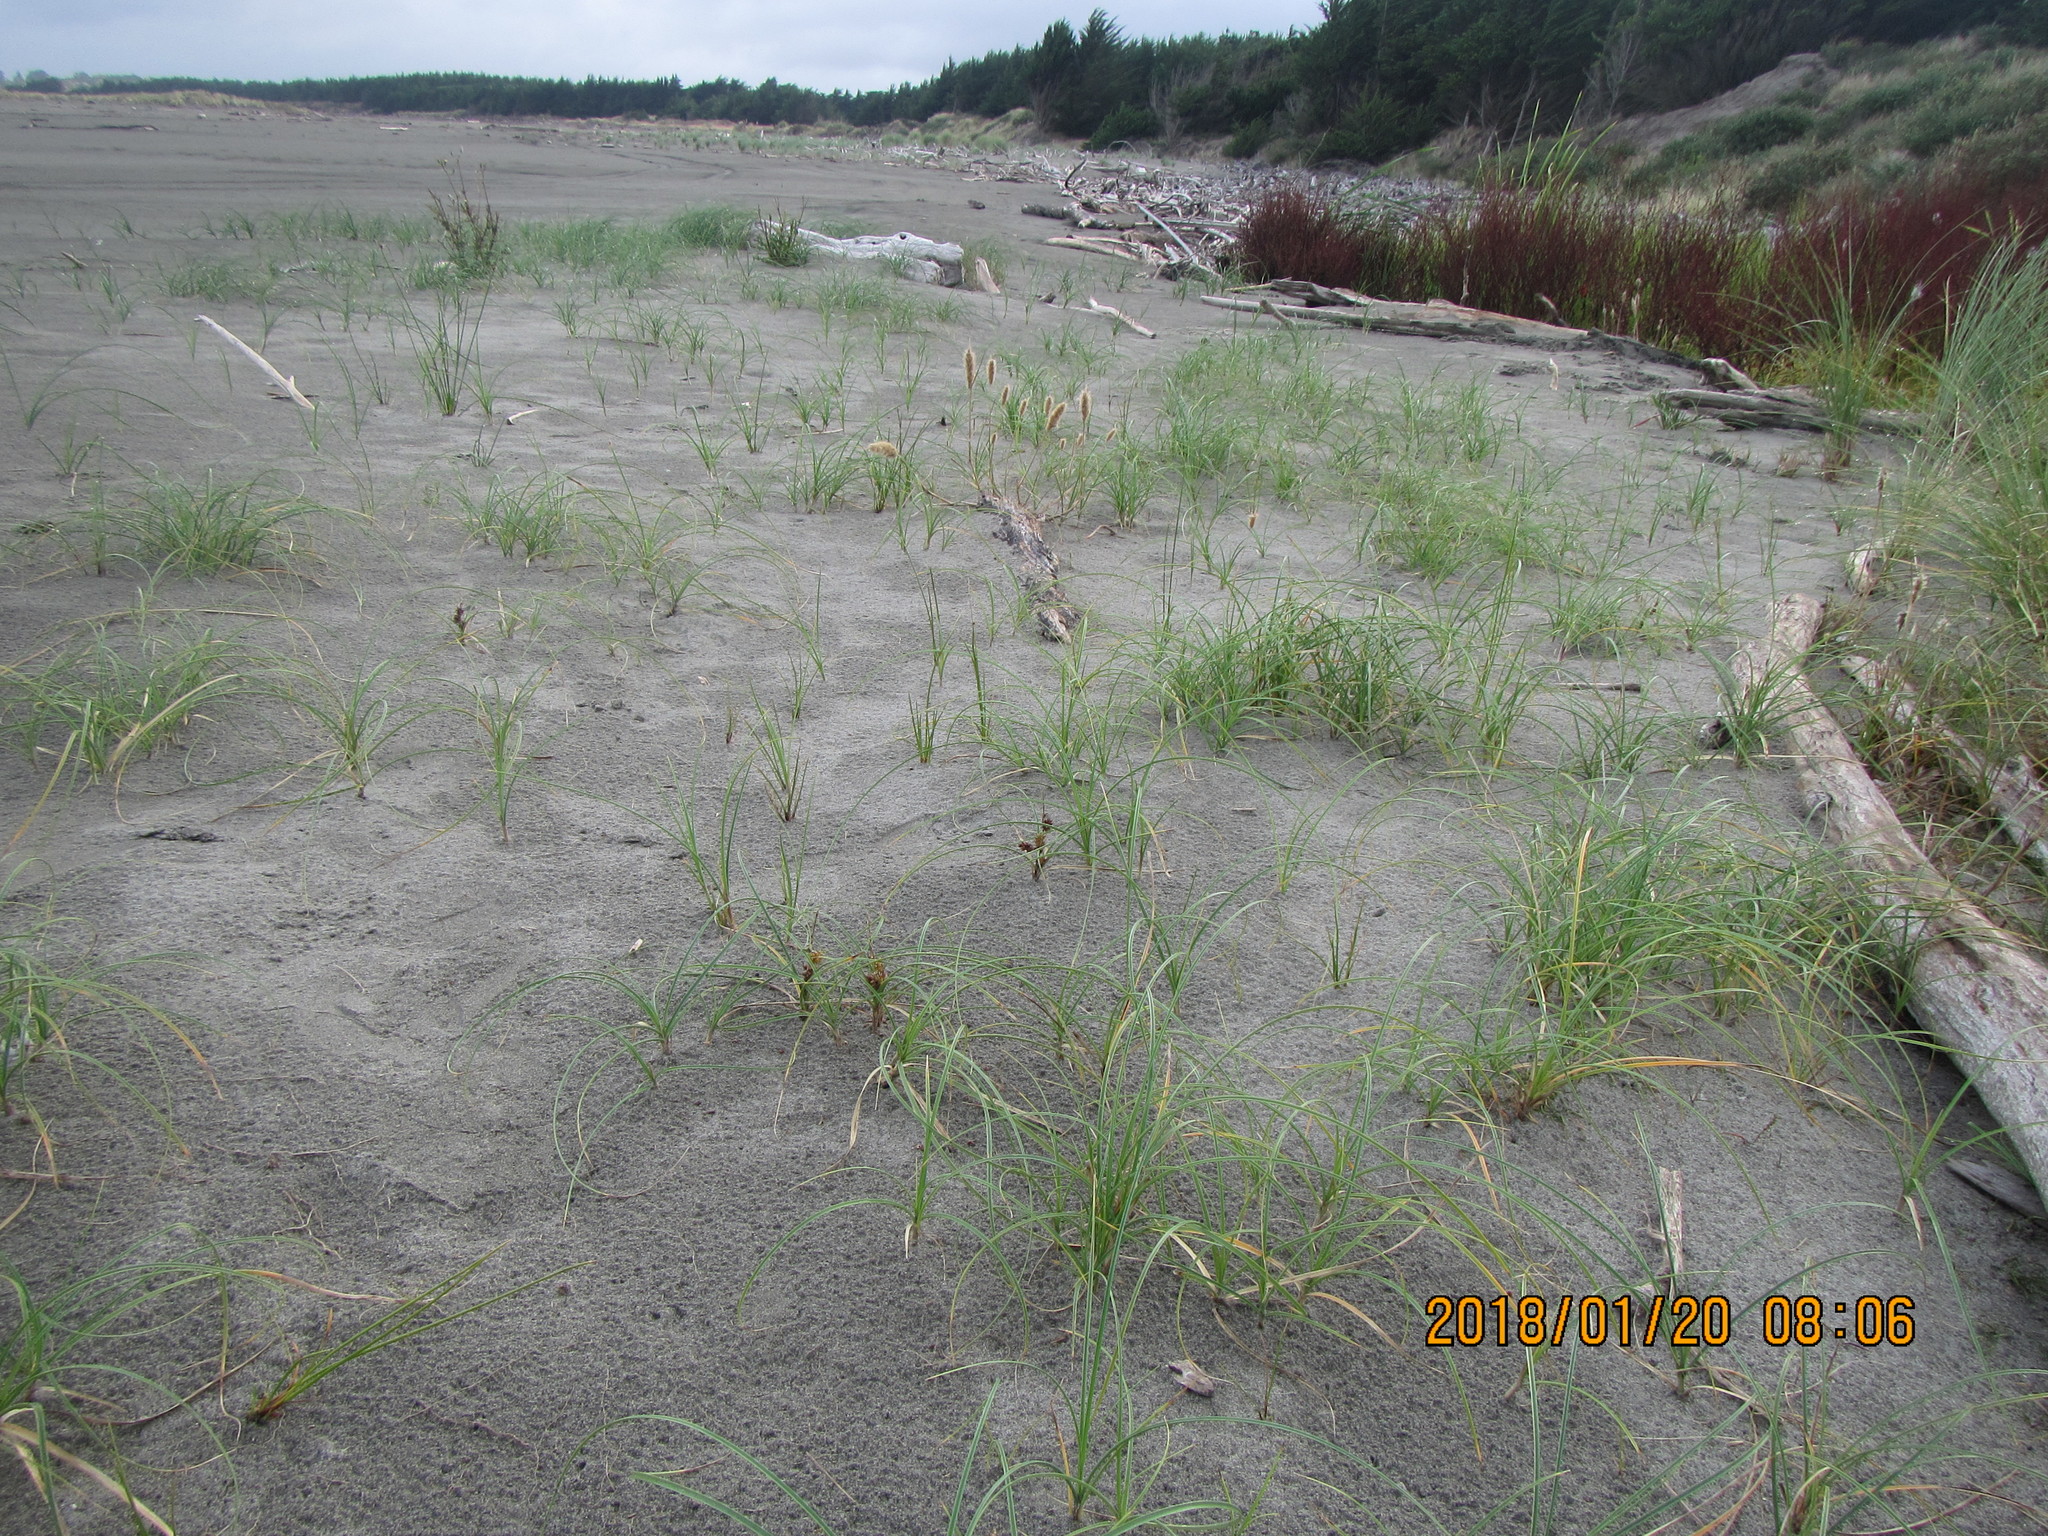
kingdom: Plantae
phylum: Tracheophyta
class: Liliopsida
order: Poales
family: Cyperaceae
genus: Carex
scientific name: Carex pumila
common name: Dwarf sedge
